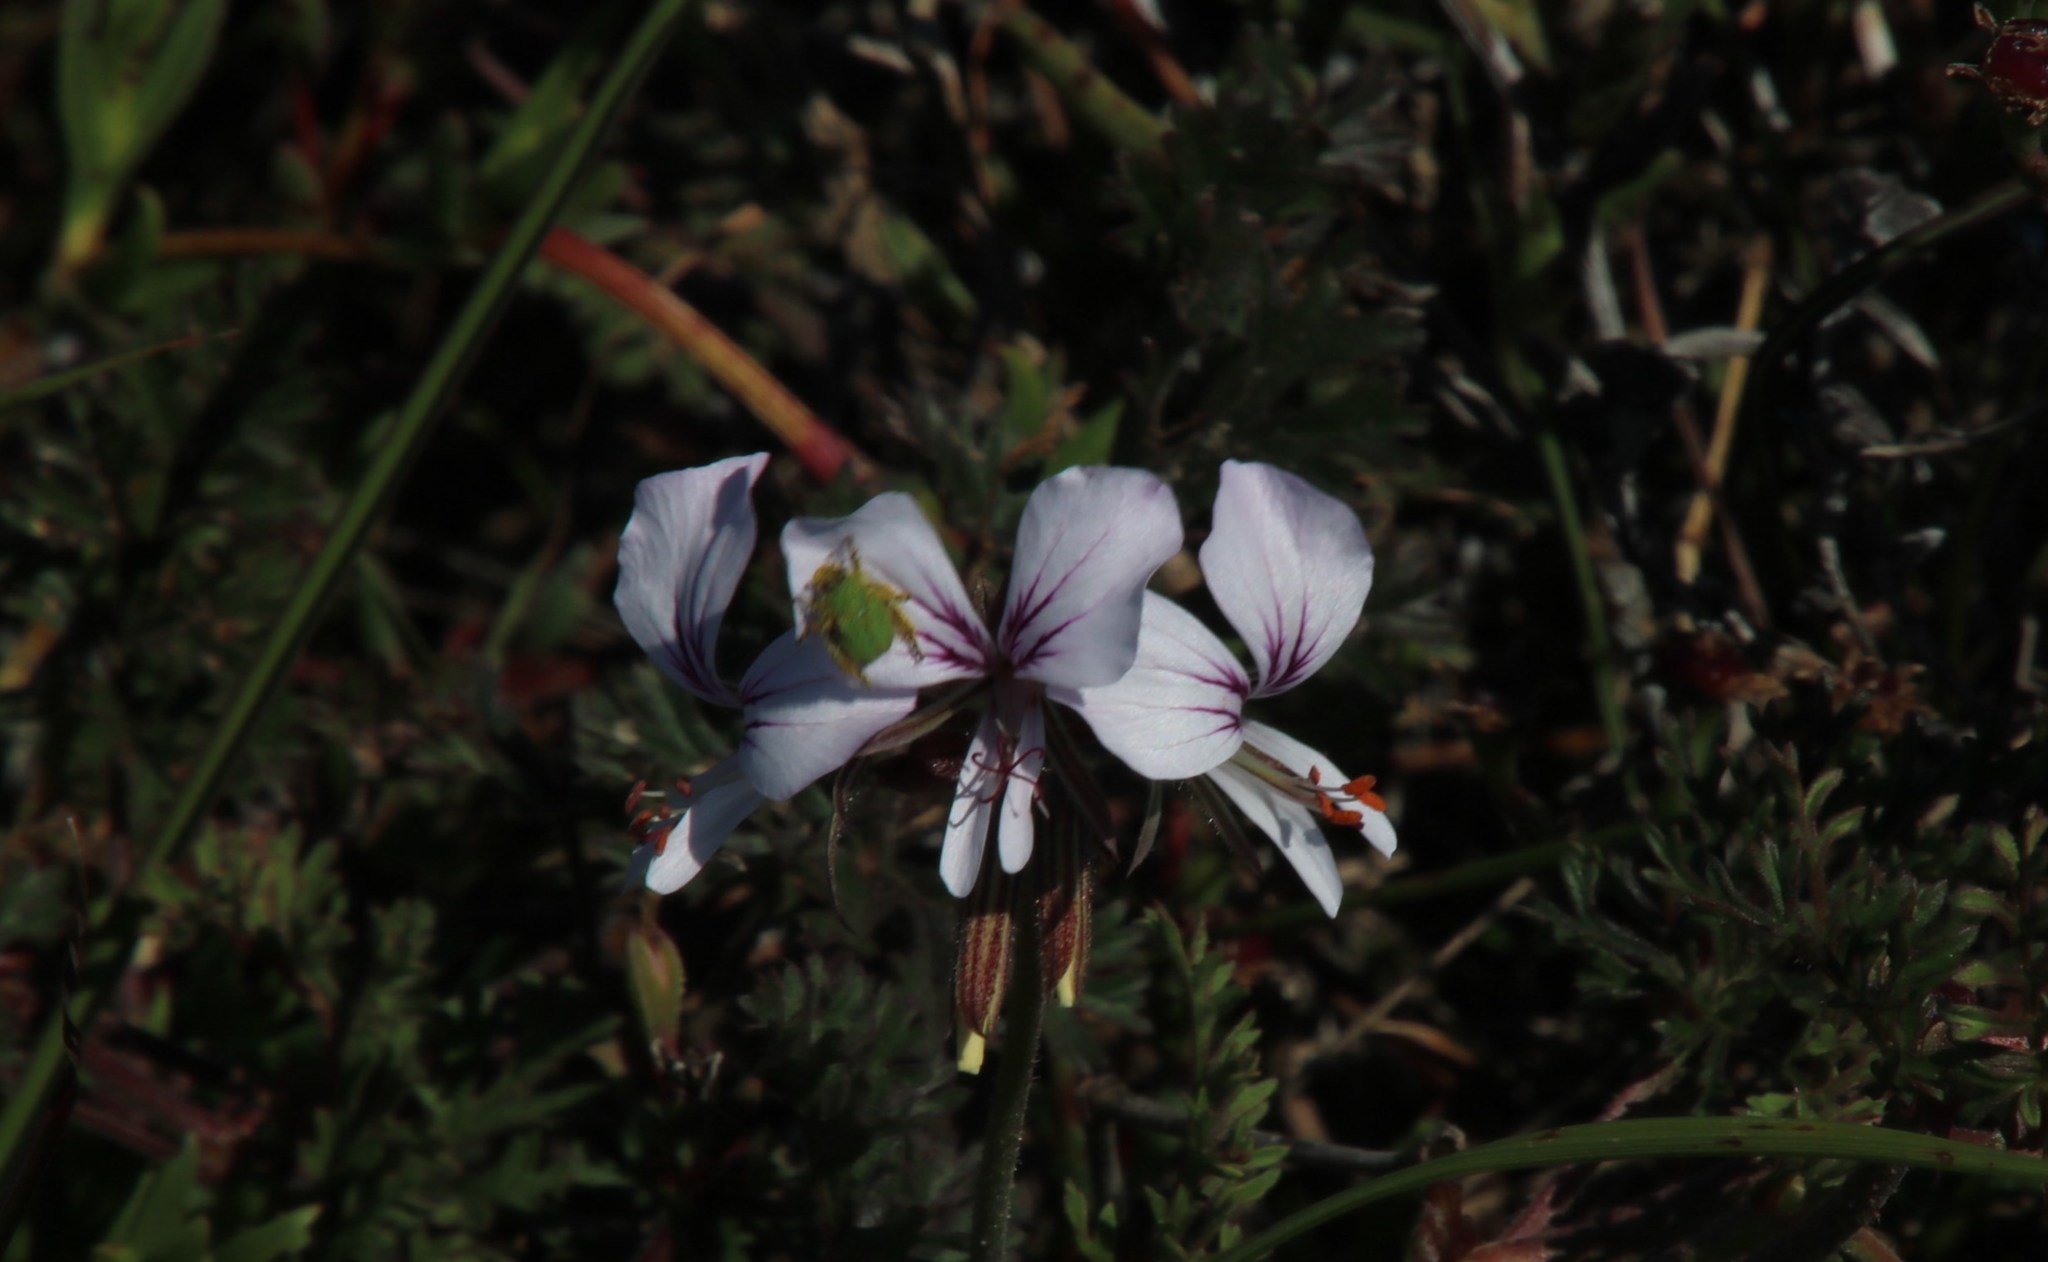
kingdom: Plantae
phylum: Tracheophyta
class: Magnoliopsida
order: Geraniales
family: Geraniaceae
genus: Pelargonium
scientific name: Pelargonium myrrhifolium
